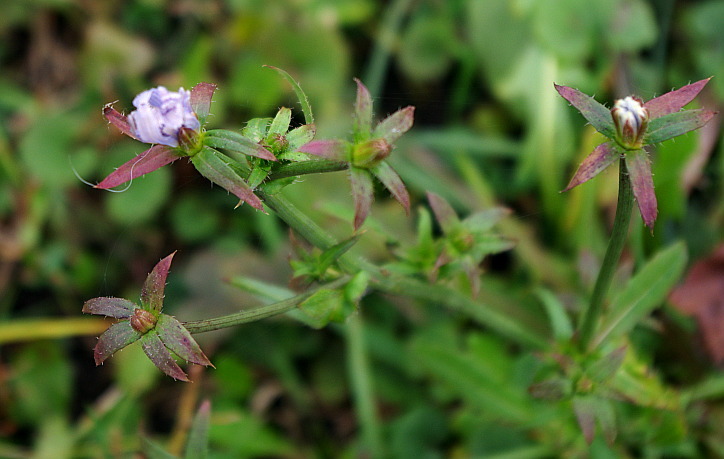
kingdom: Plantae
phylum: Tracheophyta
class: Magnoliopsida
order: Asterales
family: Asteraceae
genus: Cichorium
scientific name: Cichorium intybus
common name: Chicory
